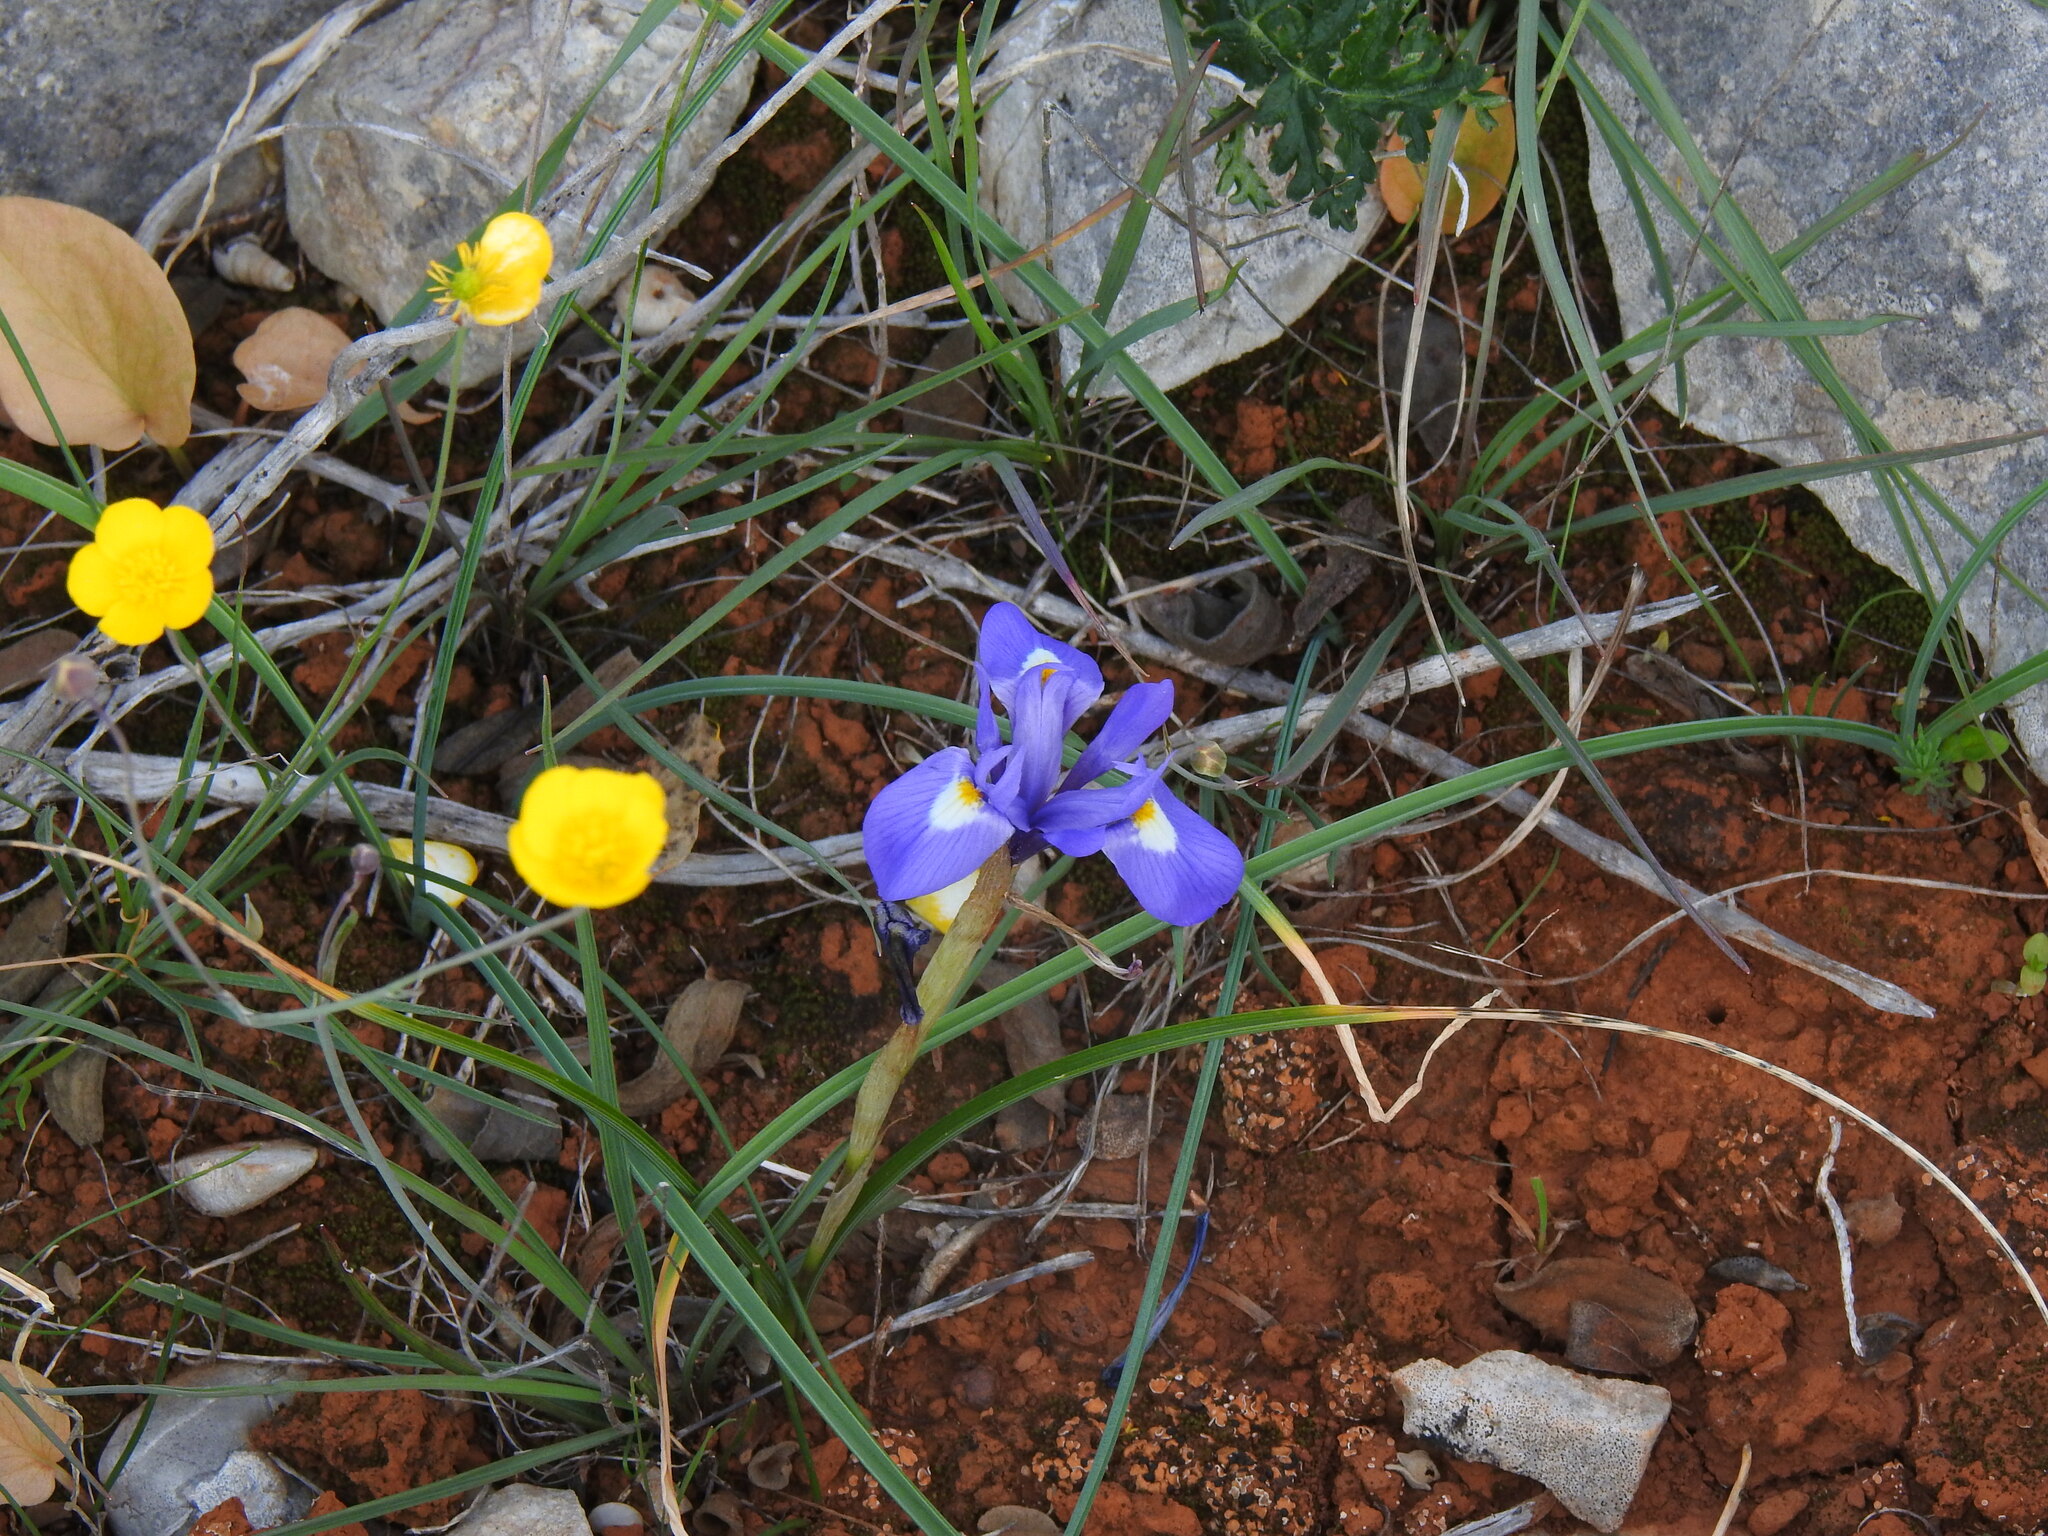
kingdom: Plantae
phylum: Tracheophyta
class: Liliopsida
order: Asparagales
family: Iridaceae
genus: Moraea
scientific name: Moraea sisyrinchium
